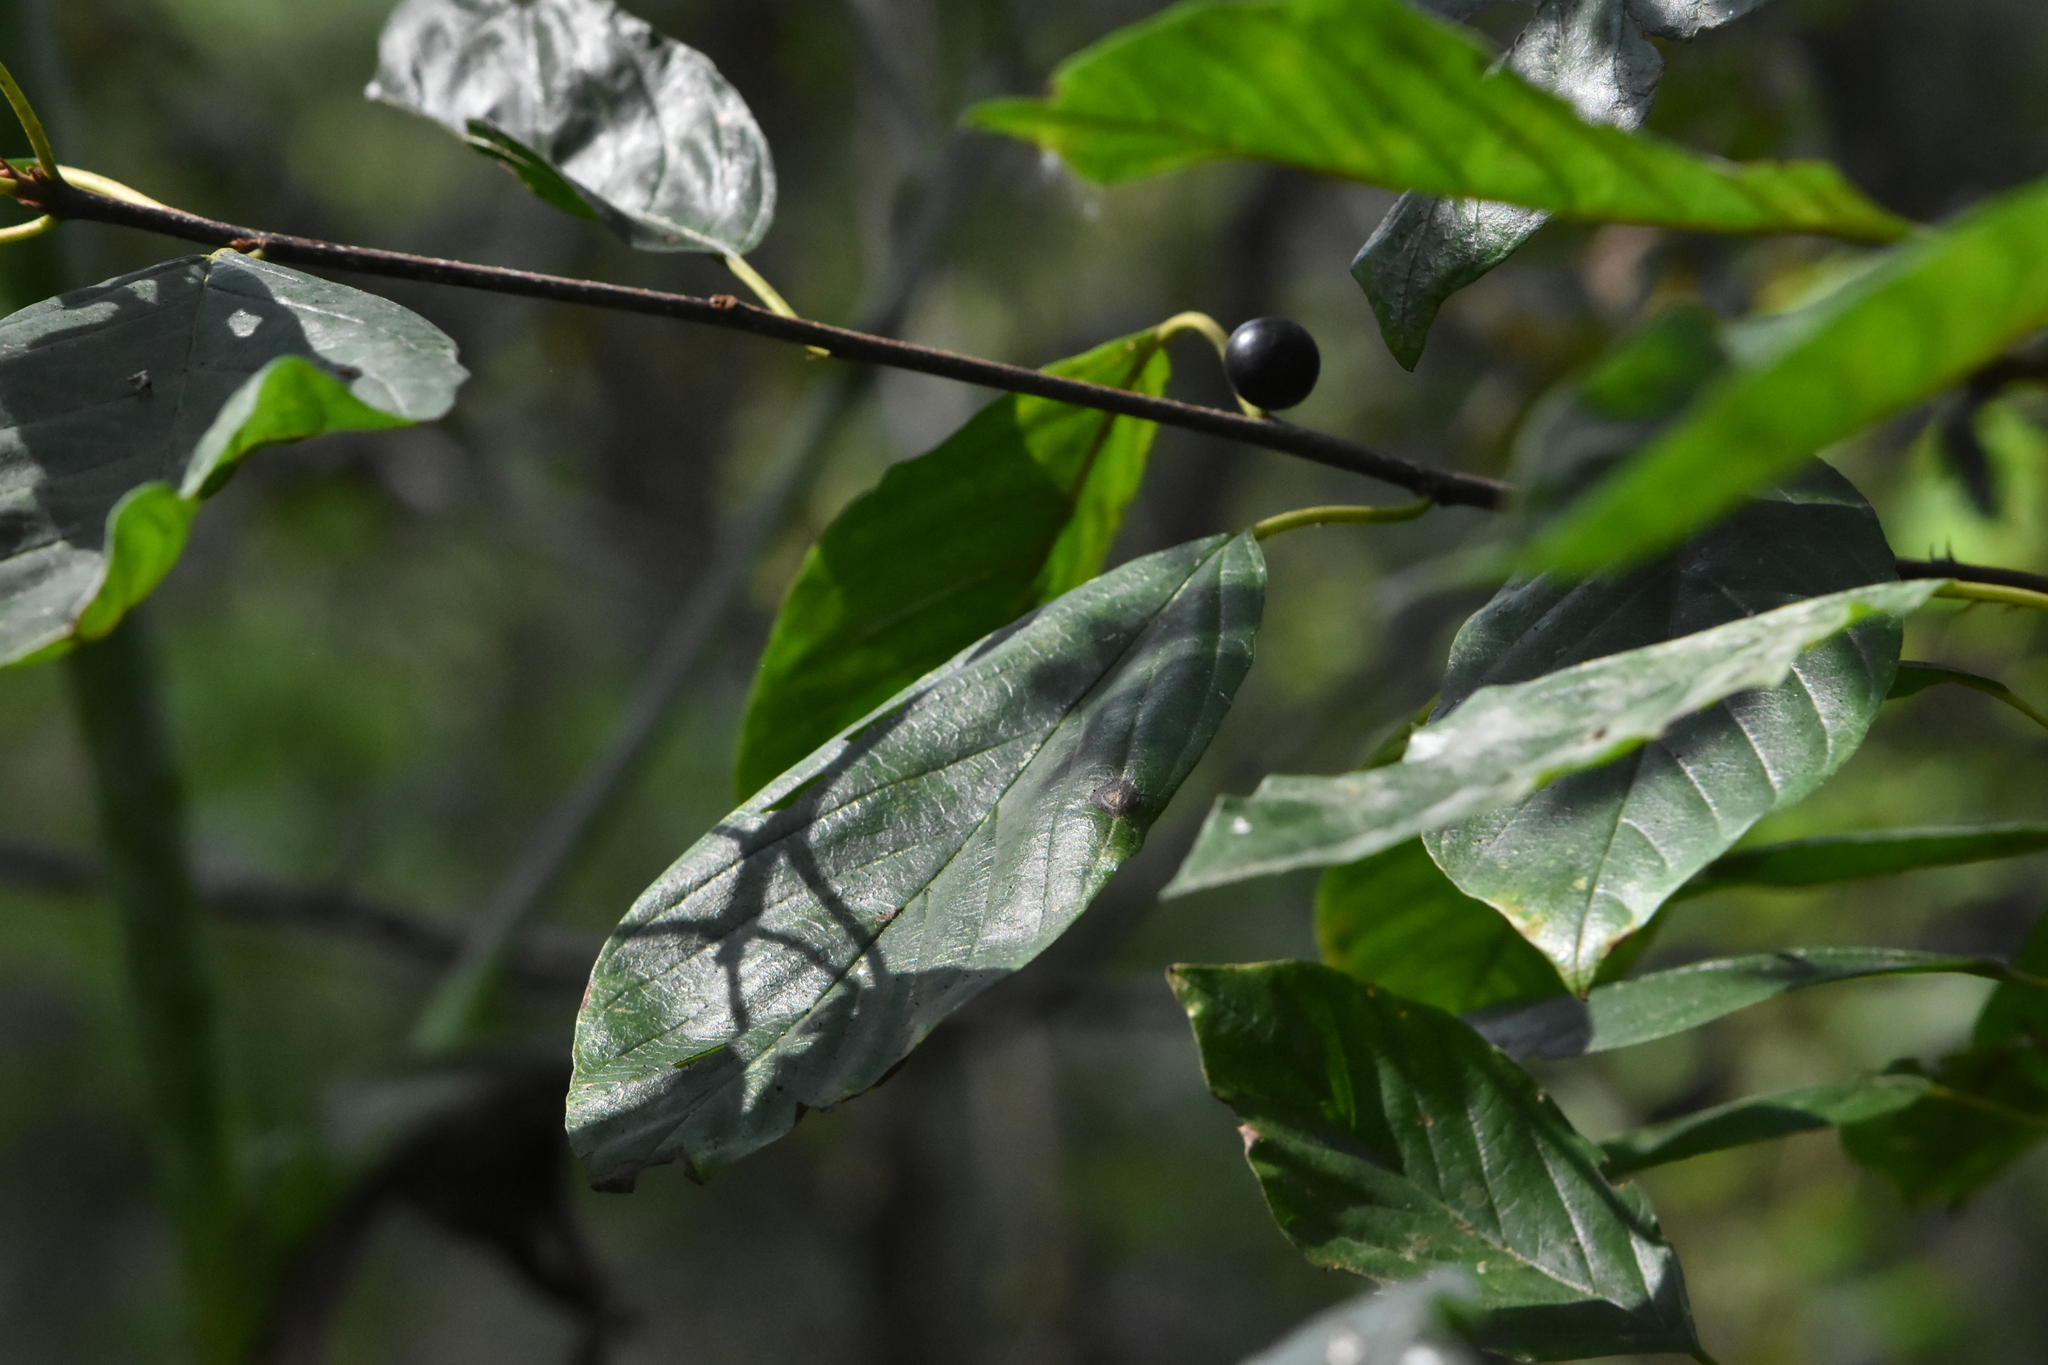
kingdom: Plantae
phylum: Tracheophyta
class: Magnoliopsida
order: Rosales
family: Rhamnaceae
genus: Frangula
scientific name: Frangula alnus
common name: Alder buckthorn
